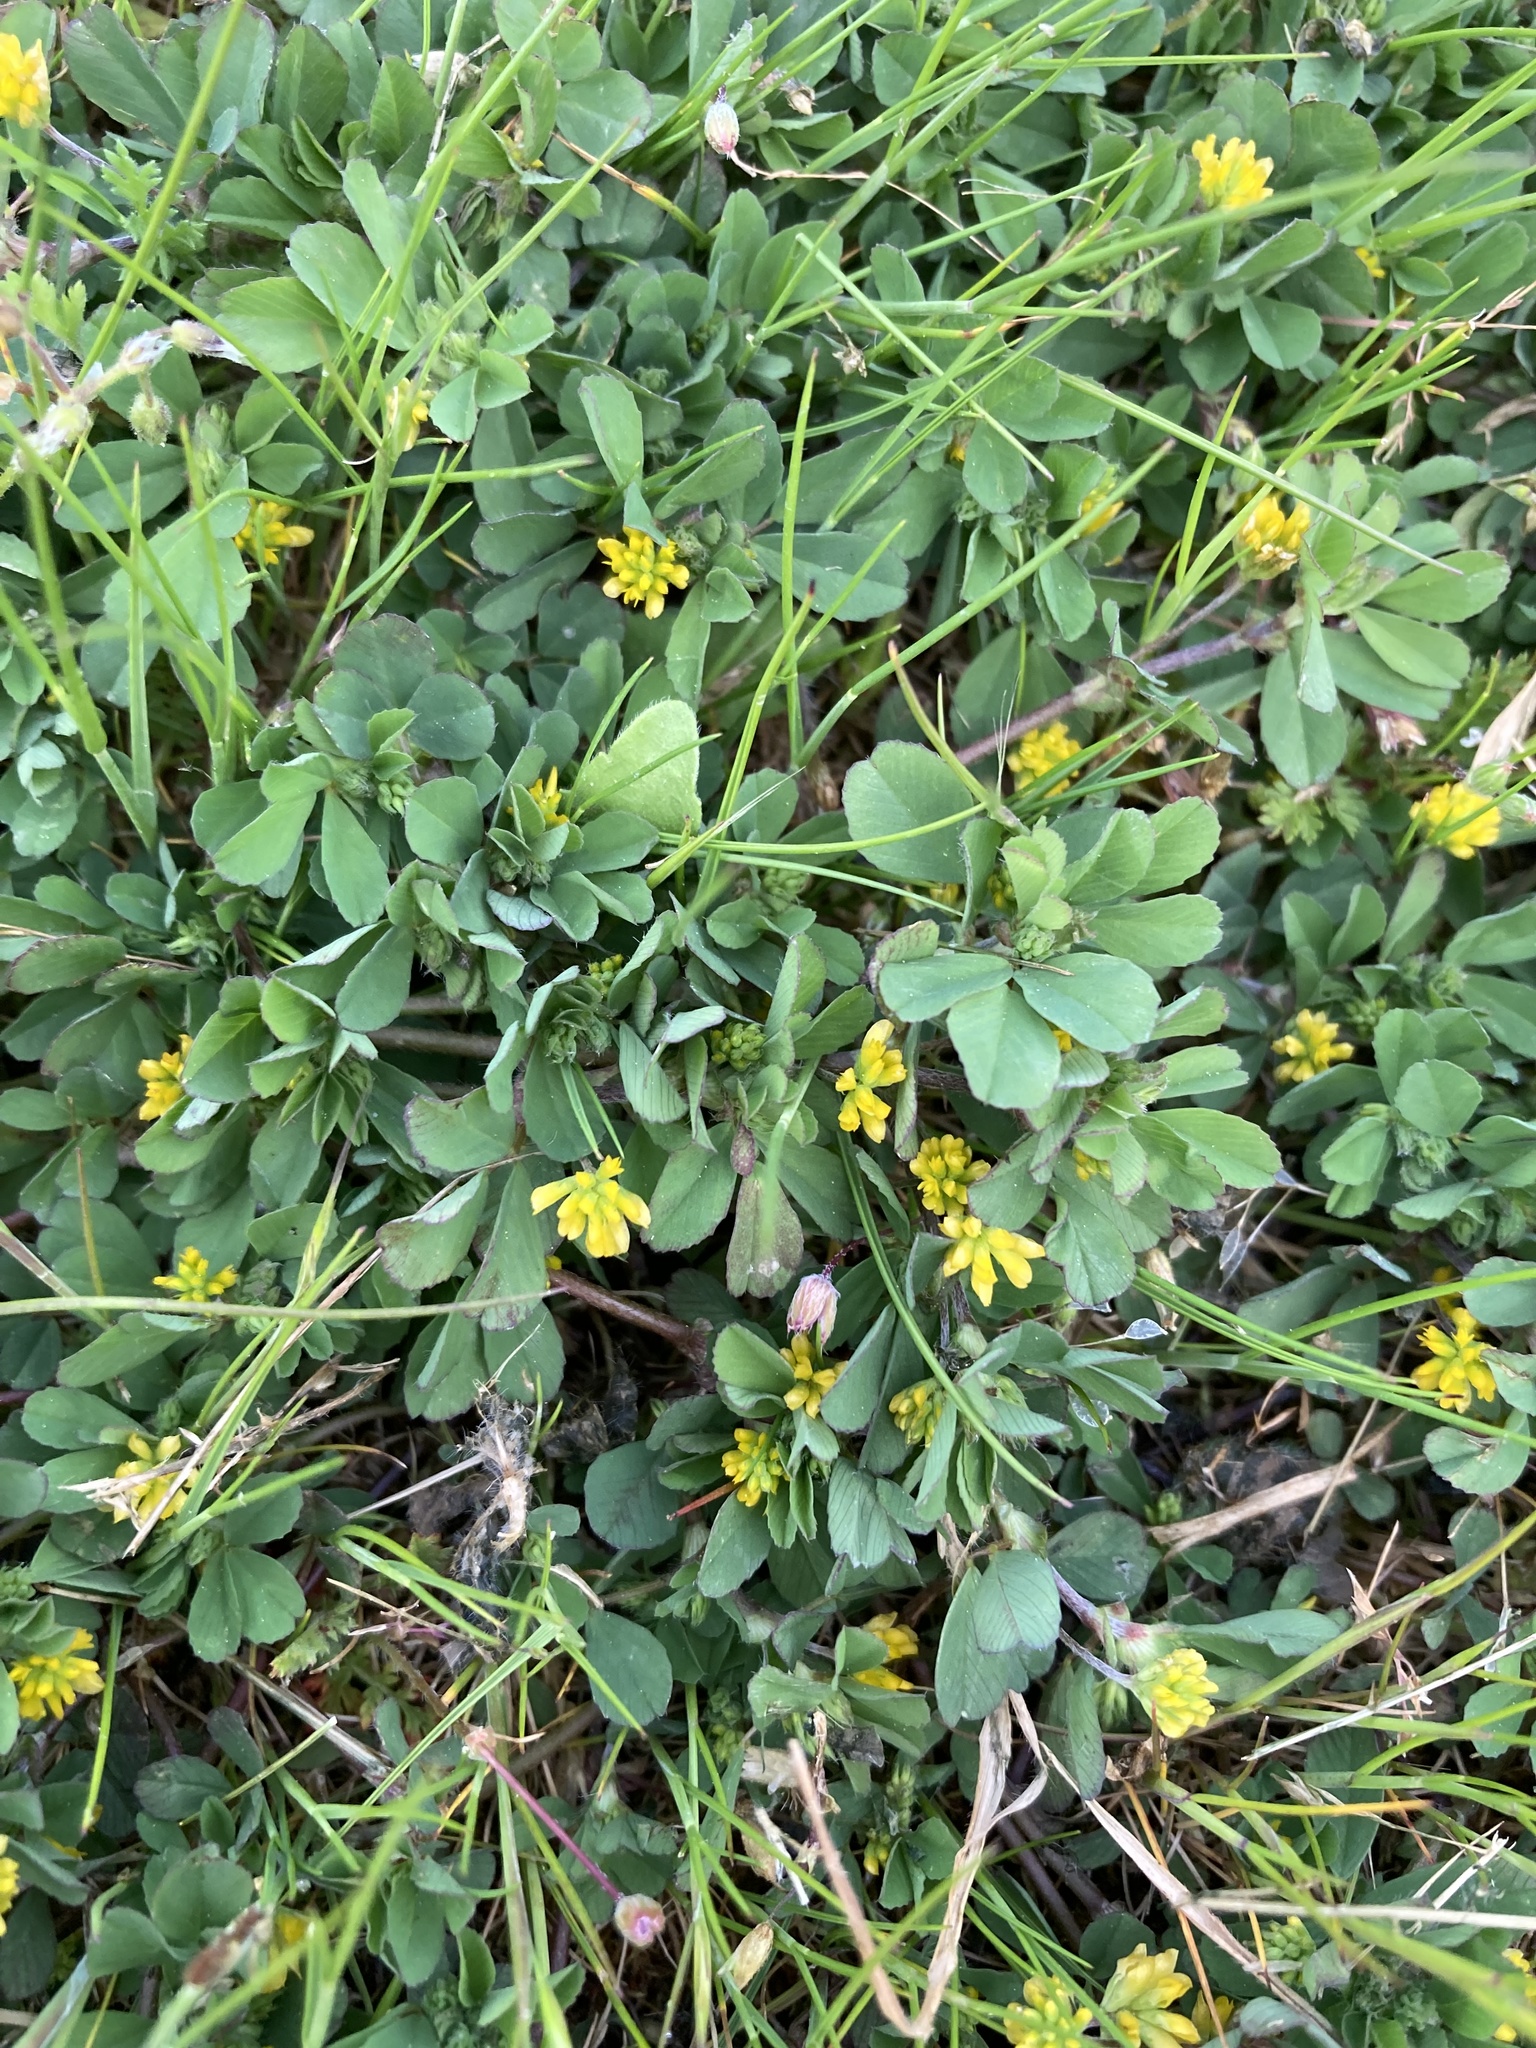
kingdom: Plantae
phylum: Tracheophyta
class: Magnoliopsida
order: Fabales
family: Fabaceae
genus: Trifolium
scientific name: Trifolium dubium
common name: Suckling clover
